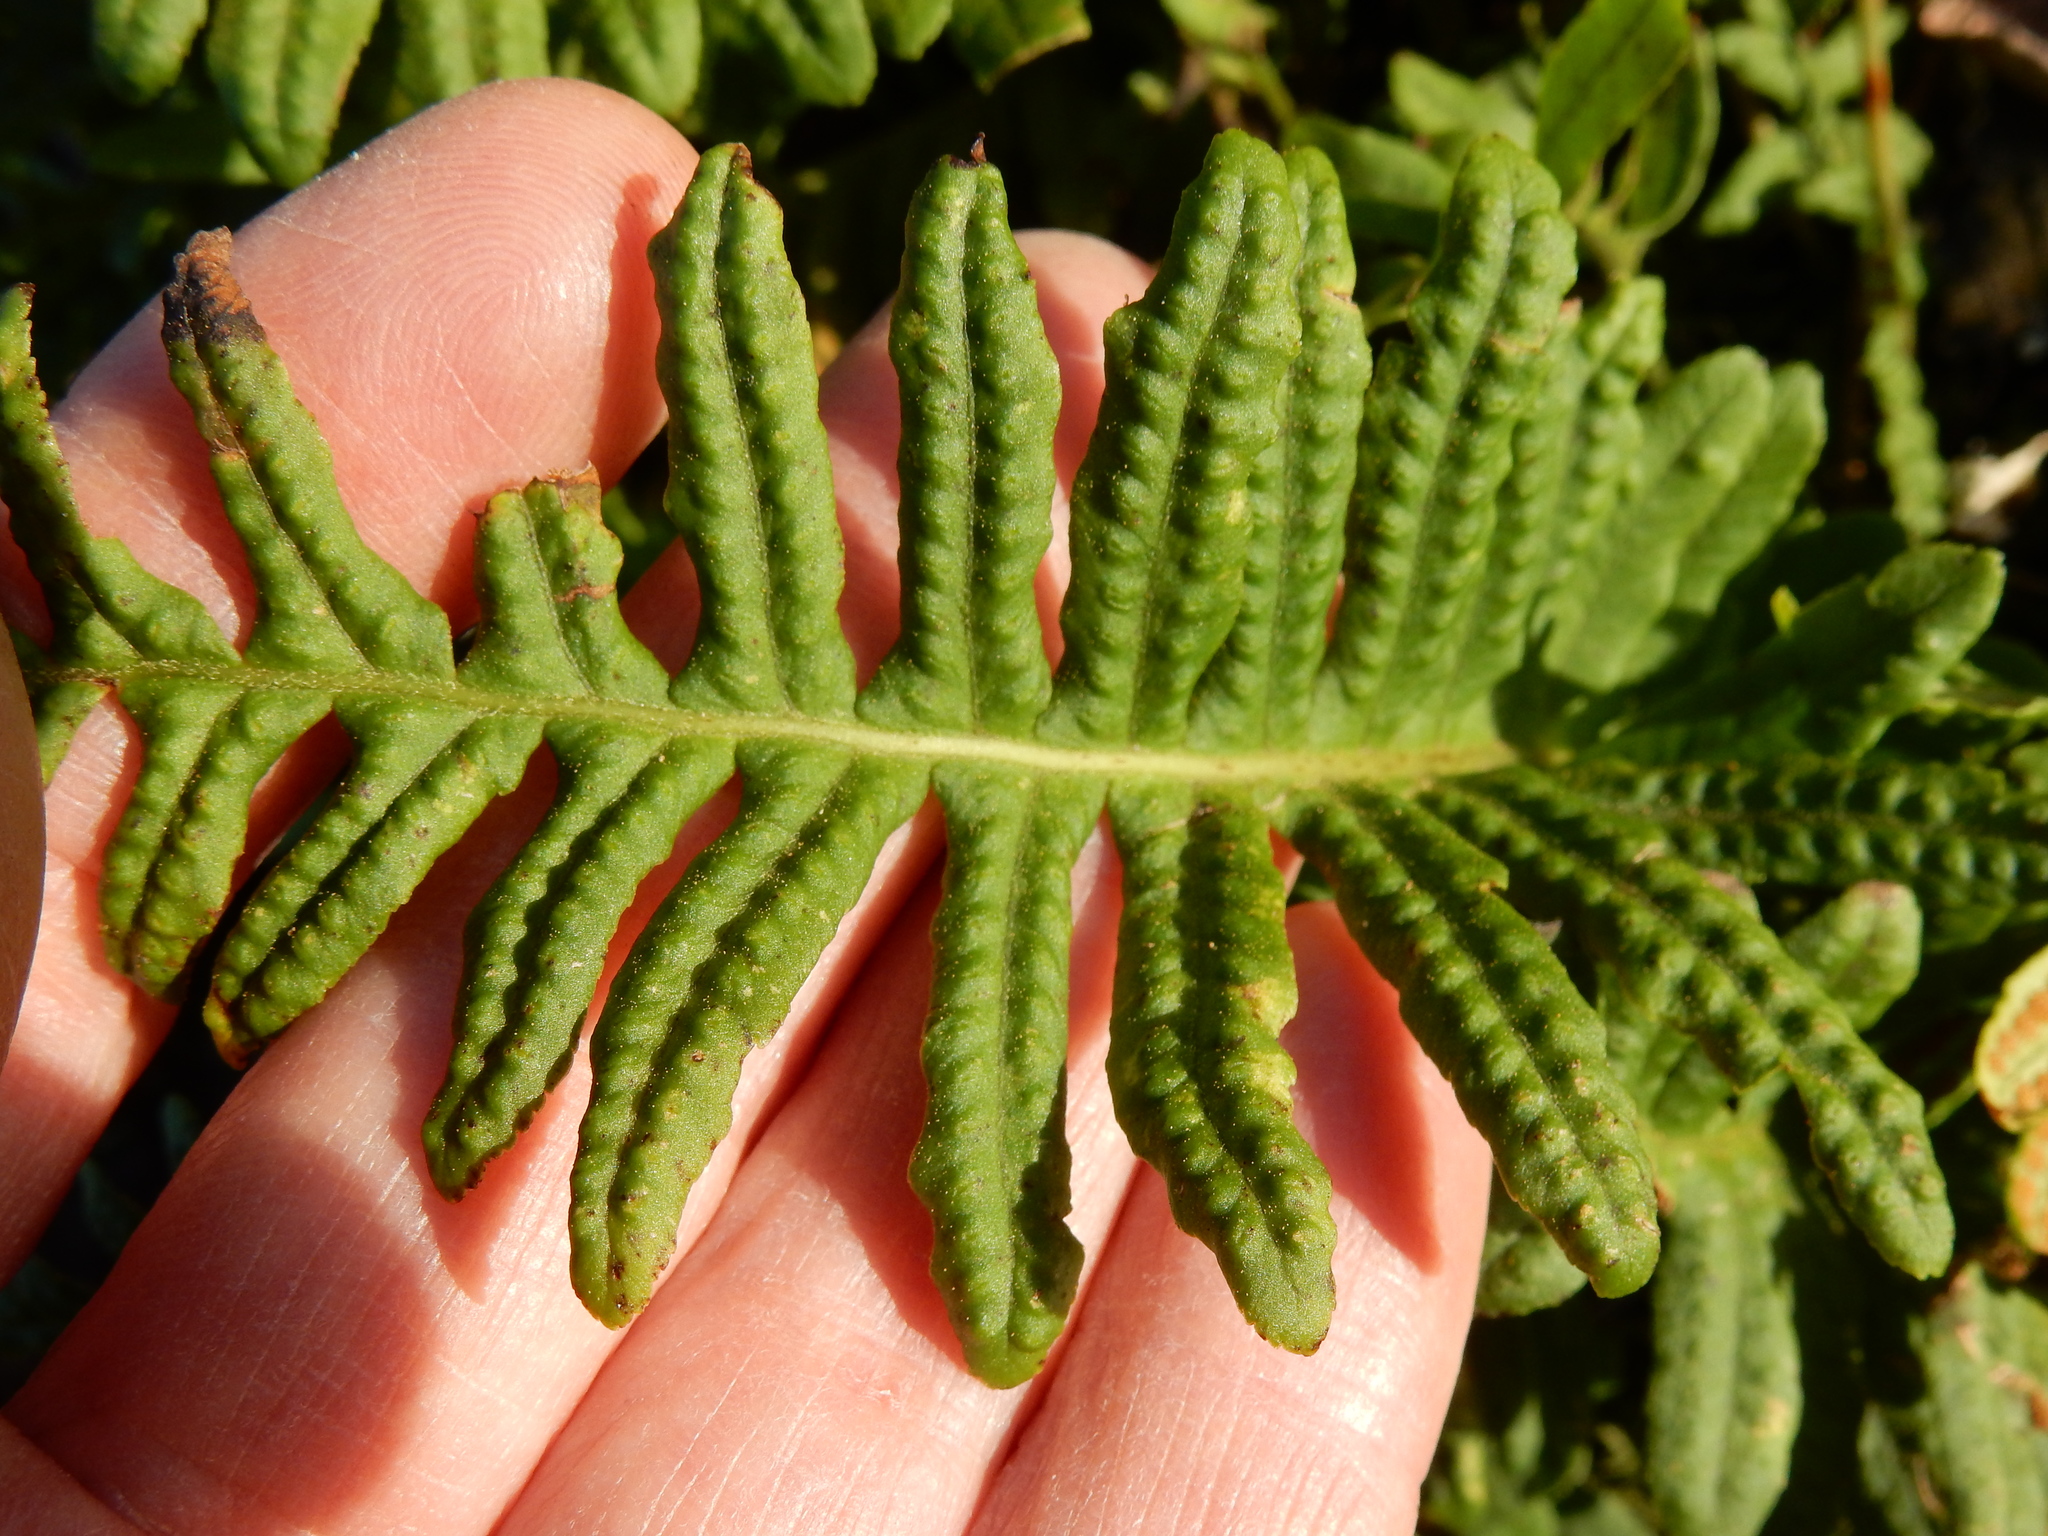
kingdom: Plantae
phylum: Tracheophyta
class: Polypodiopsida
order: Polypodiales
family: Polypodiaceae
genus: Polypodium
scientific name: Polypodium calirhiza
